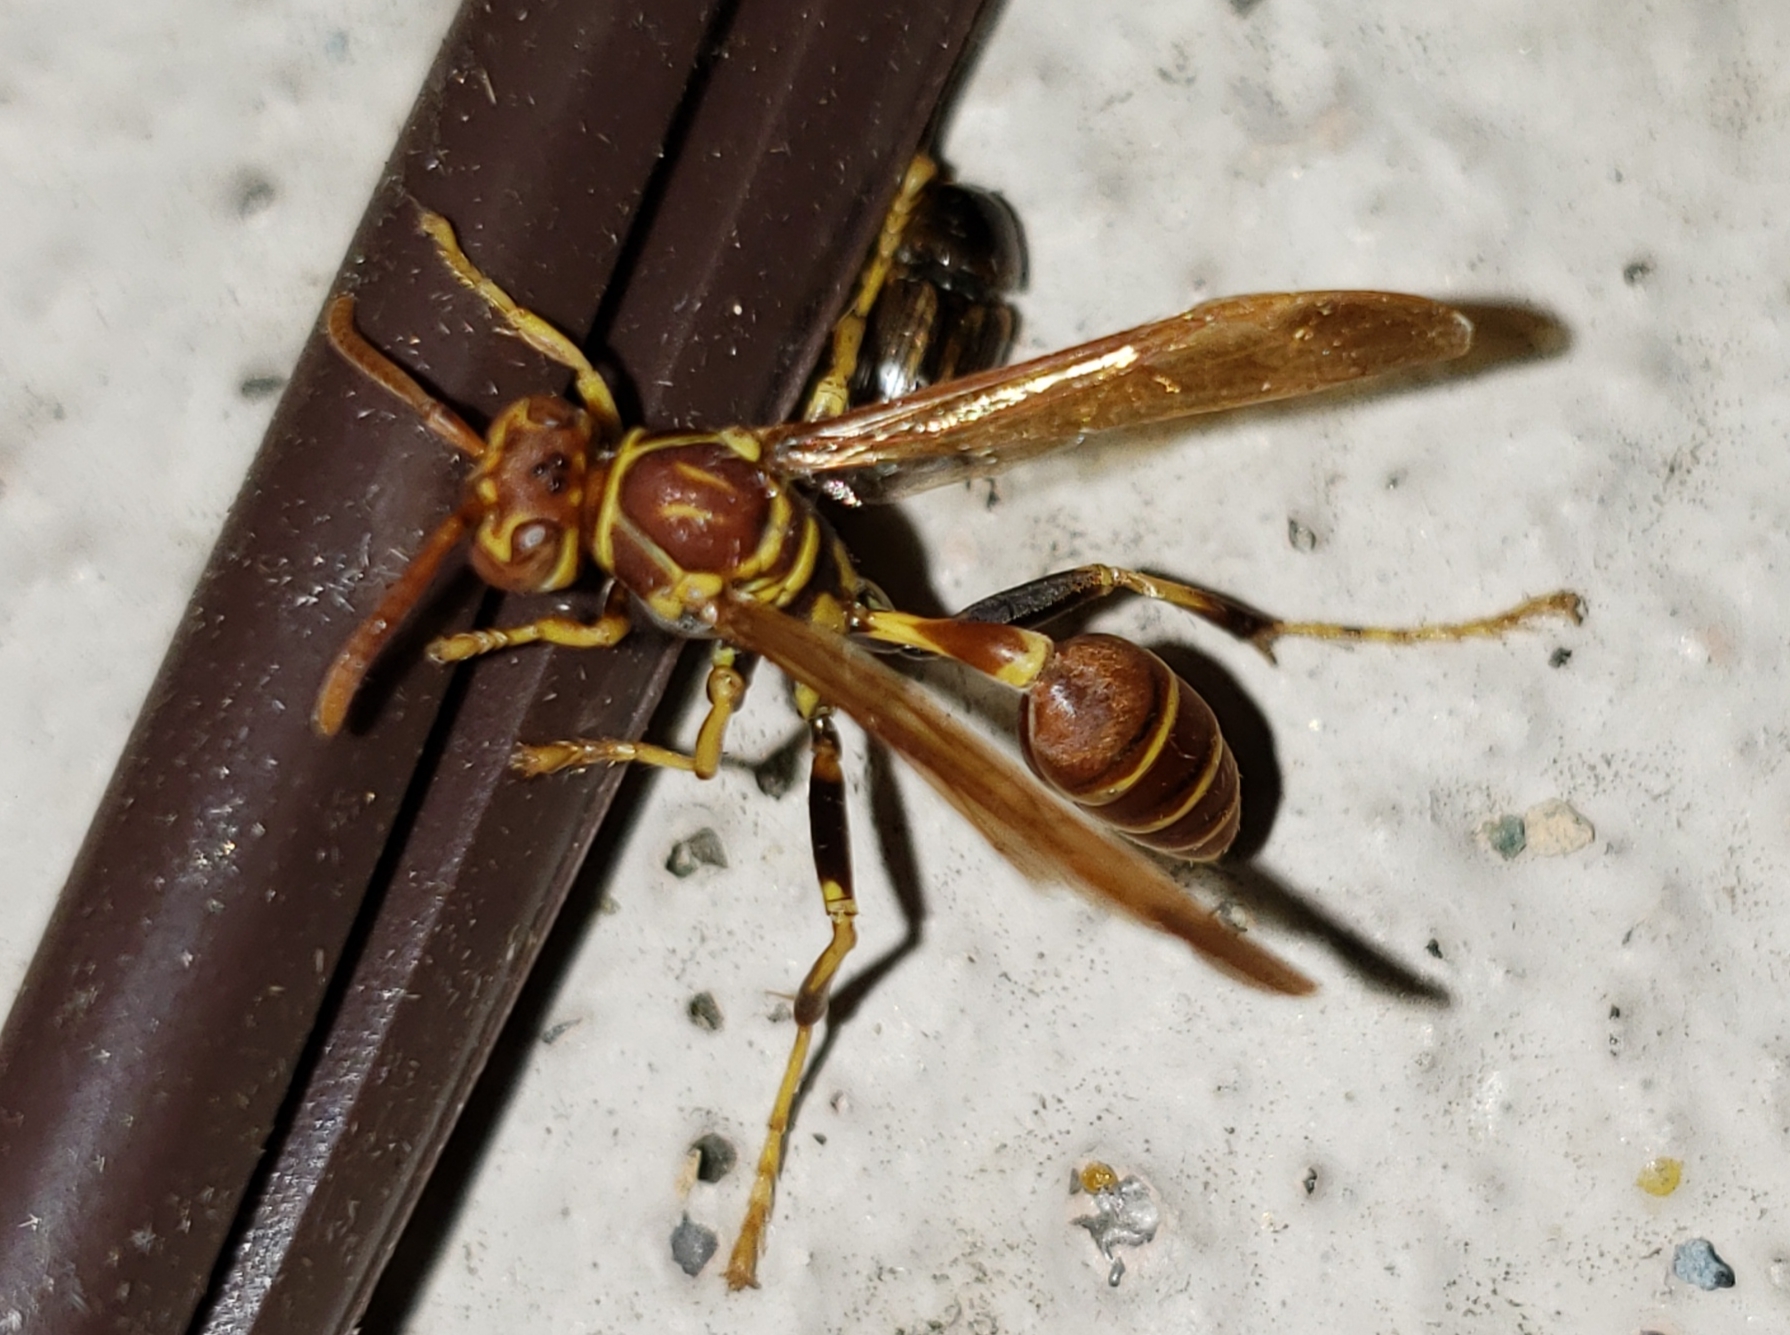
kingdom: Animalia
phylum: Arthropoda
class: Insecta
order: Hymenoptera
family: Vespidae
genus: Mischocyttarus
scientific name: Mischocyttarus mexicanus
